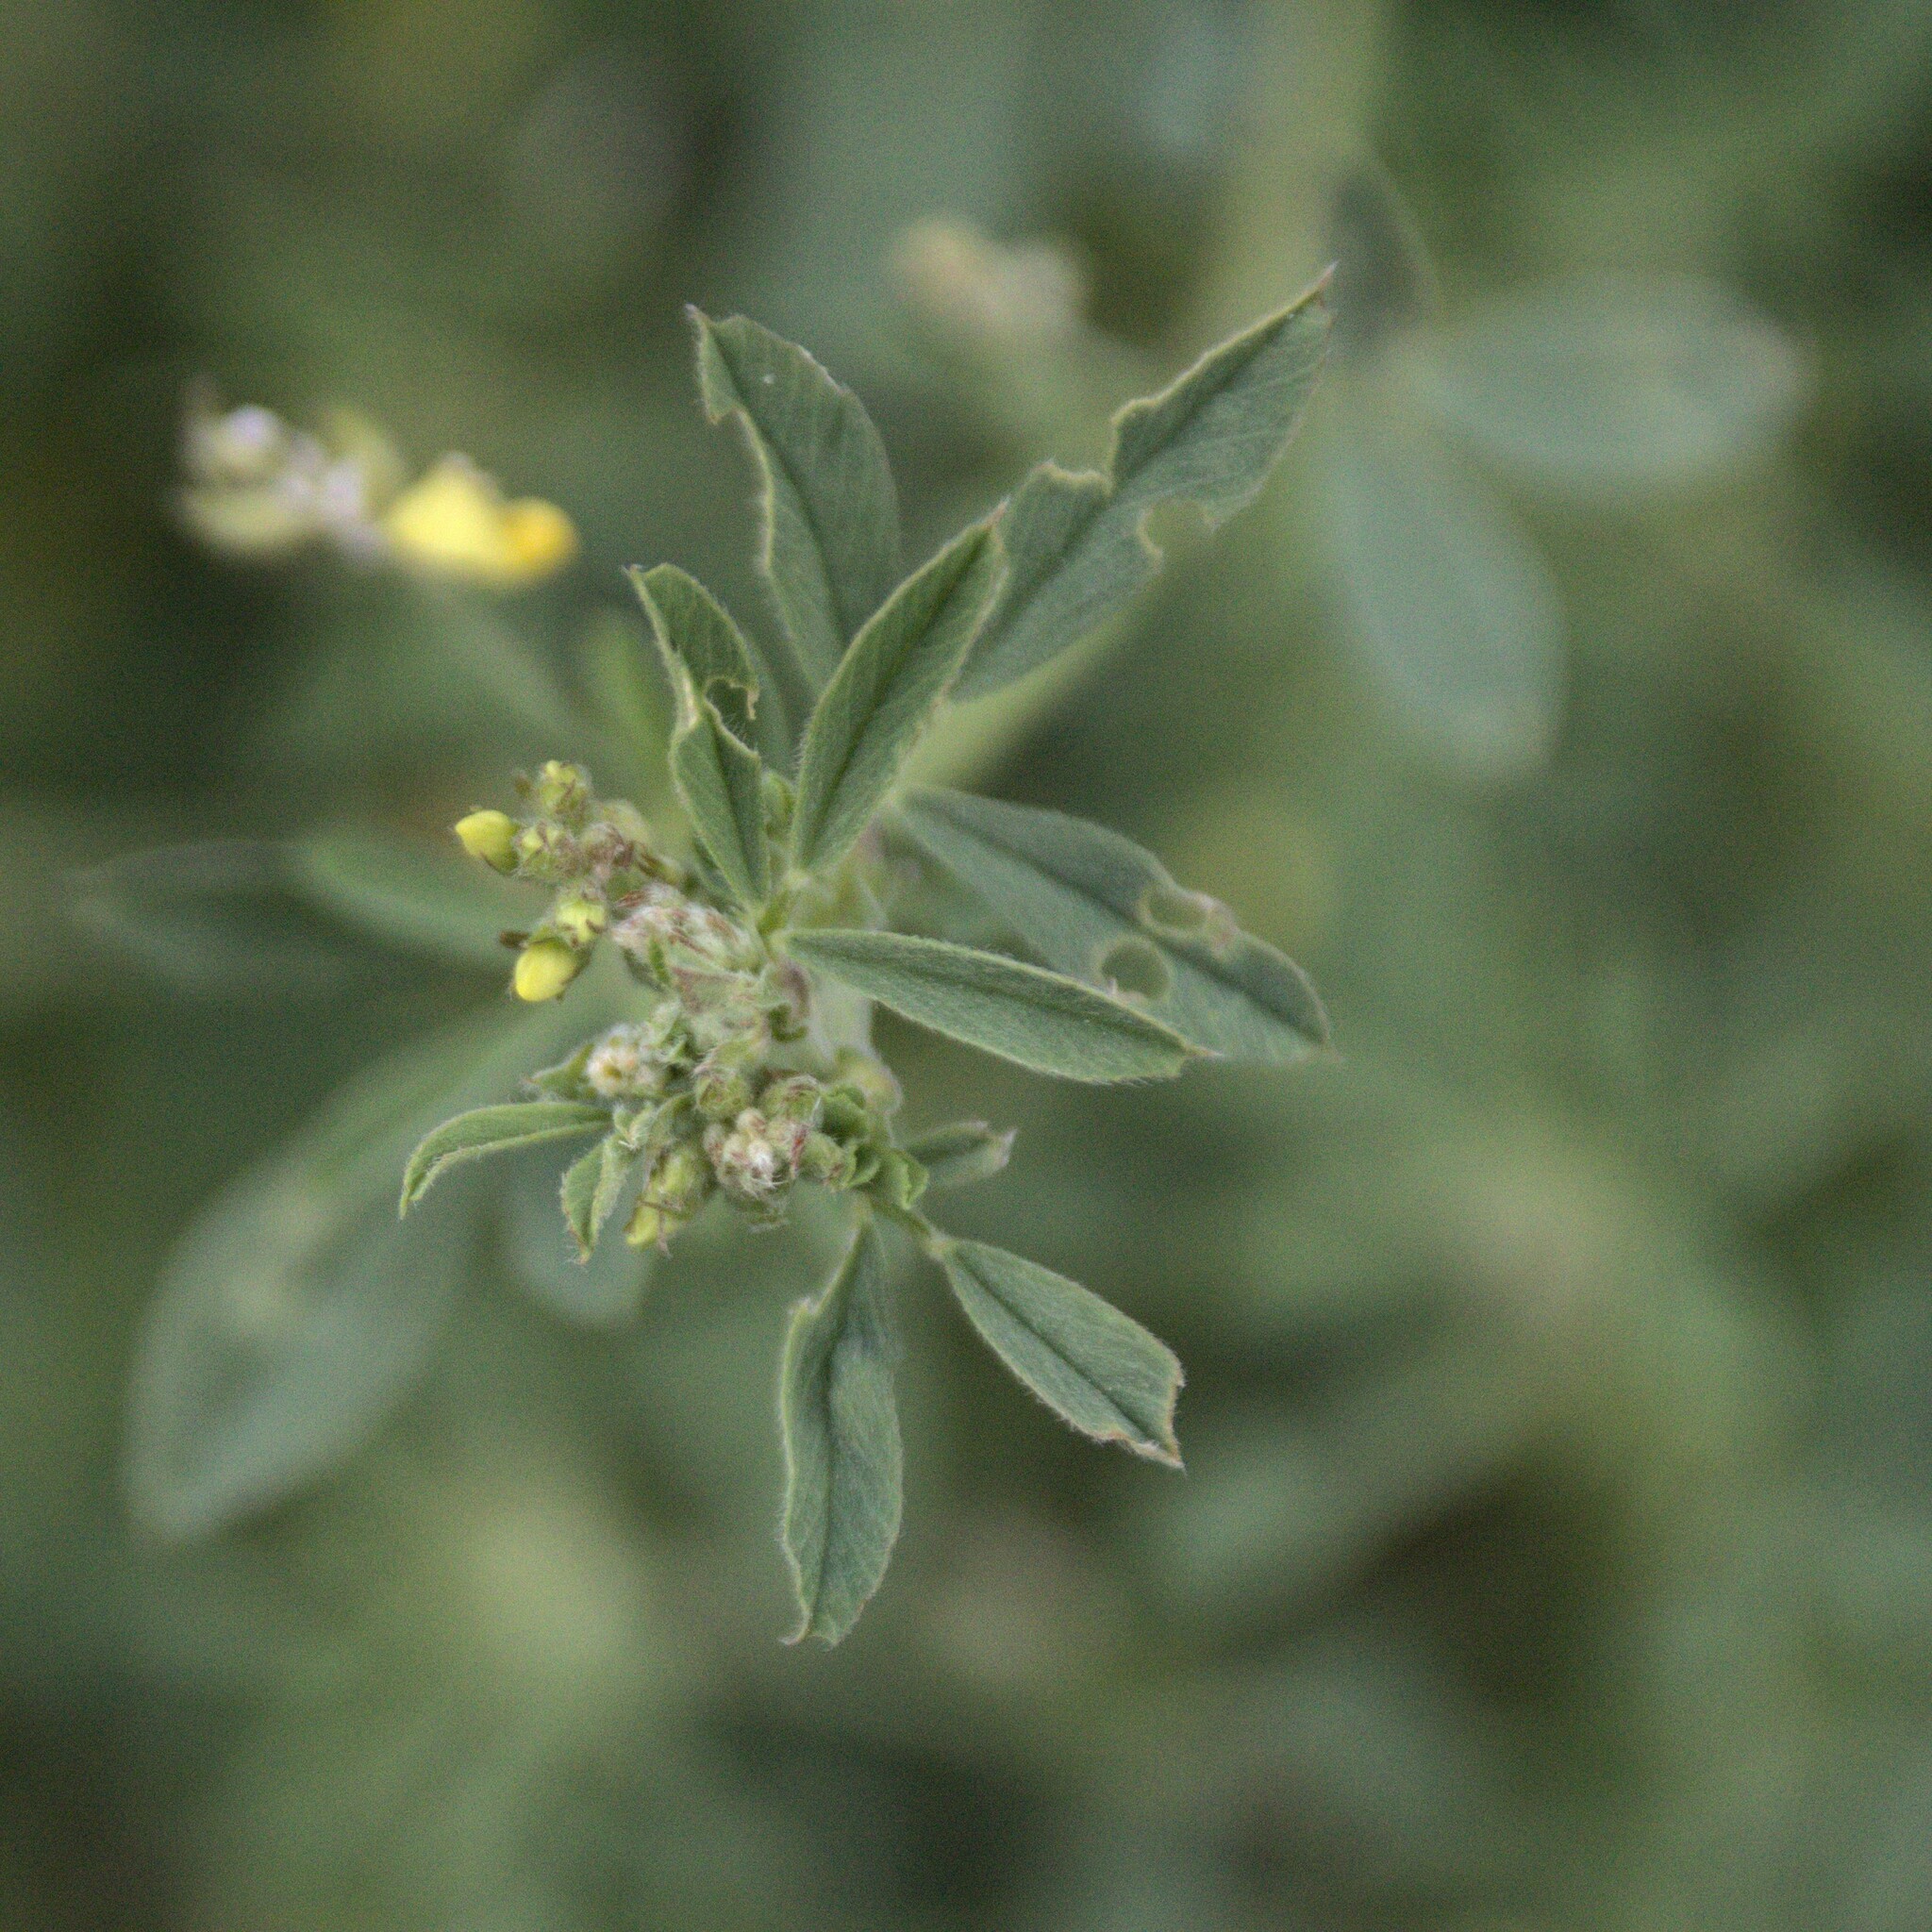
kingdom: Plantae
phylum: Tracheophyta
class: Magnoliopsida
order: Fabales
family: Fabaceae
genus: Medicago
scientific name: Medicago falcata
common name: Sickle medick
